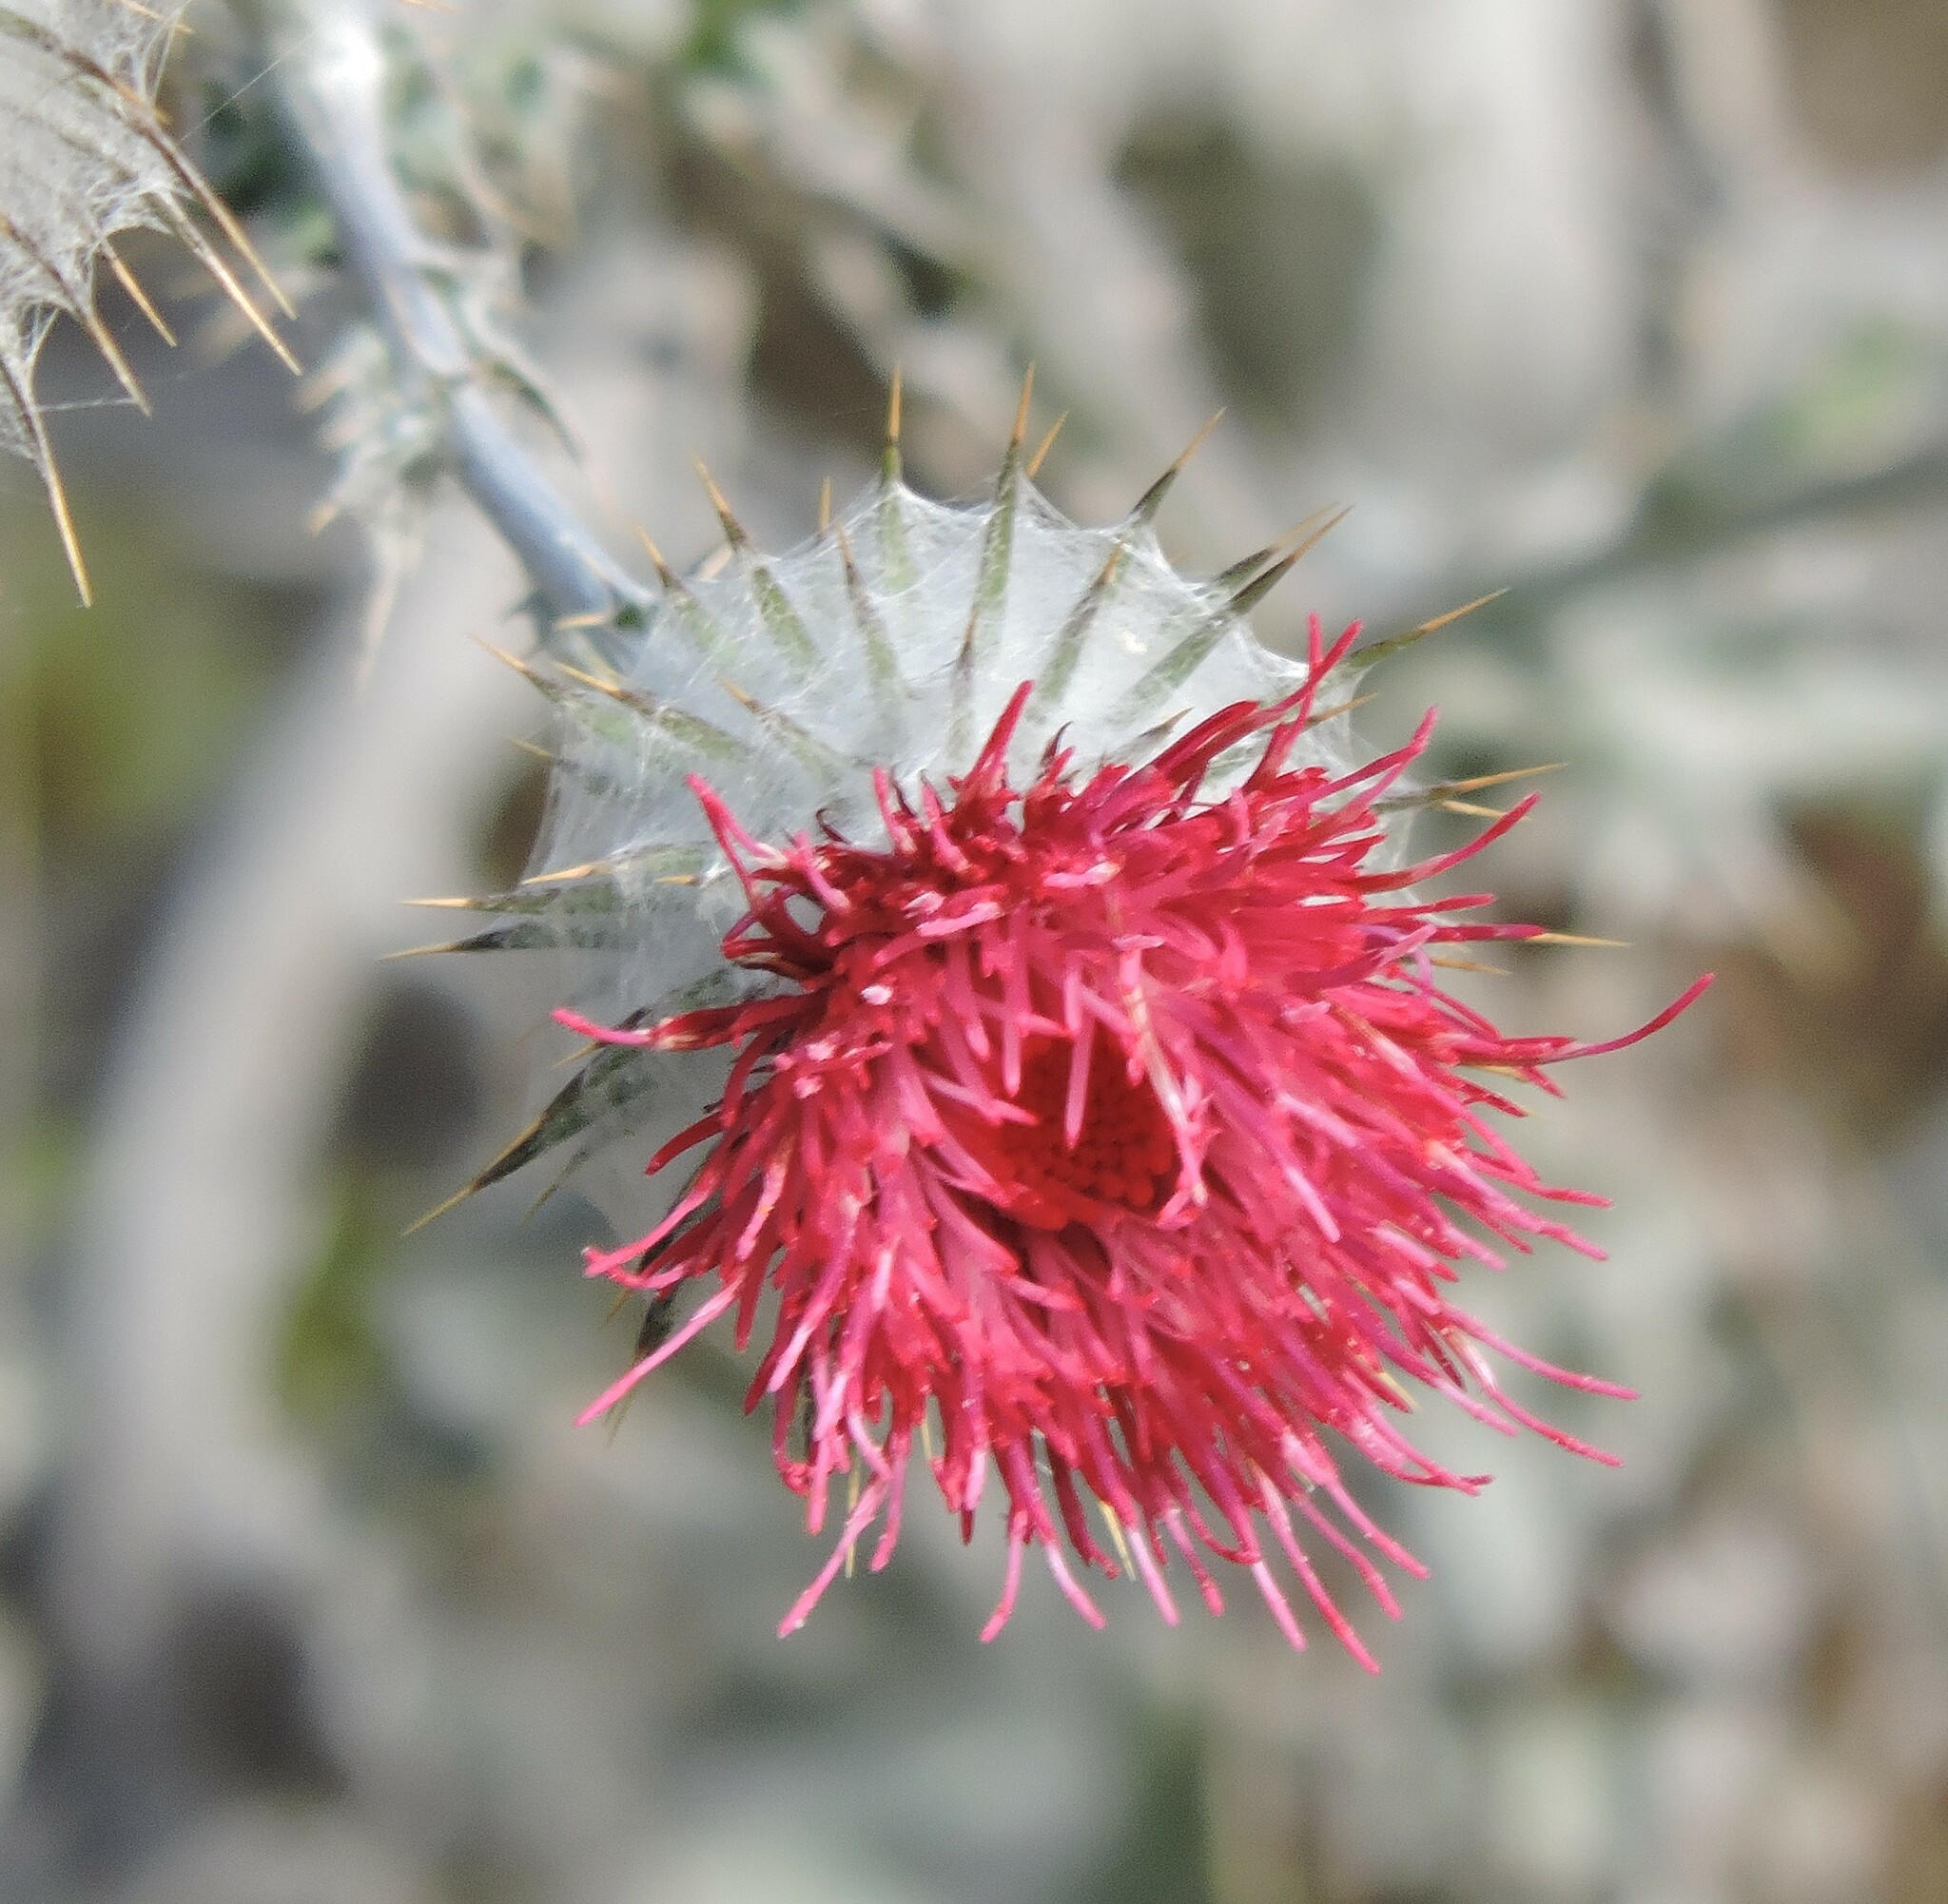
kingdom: Plantae
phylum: Tracheophyta
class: Magnoliopsida
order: Asterales
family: Asteraceae
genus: Cirsium
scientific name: Cirsium occidentale
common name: Western thistle
